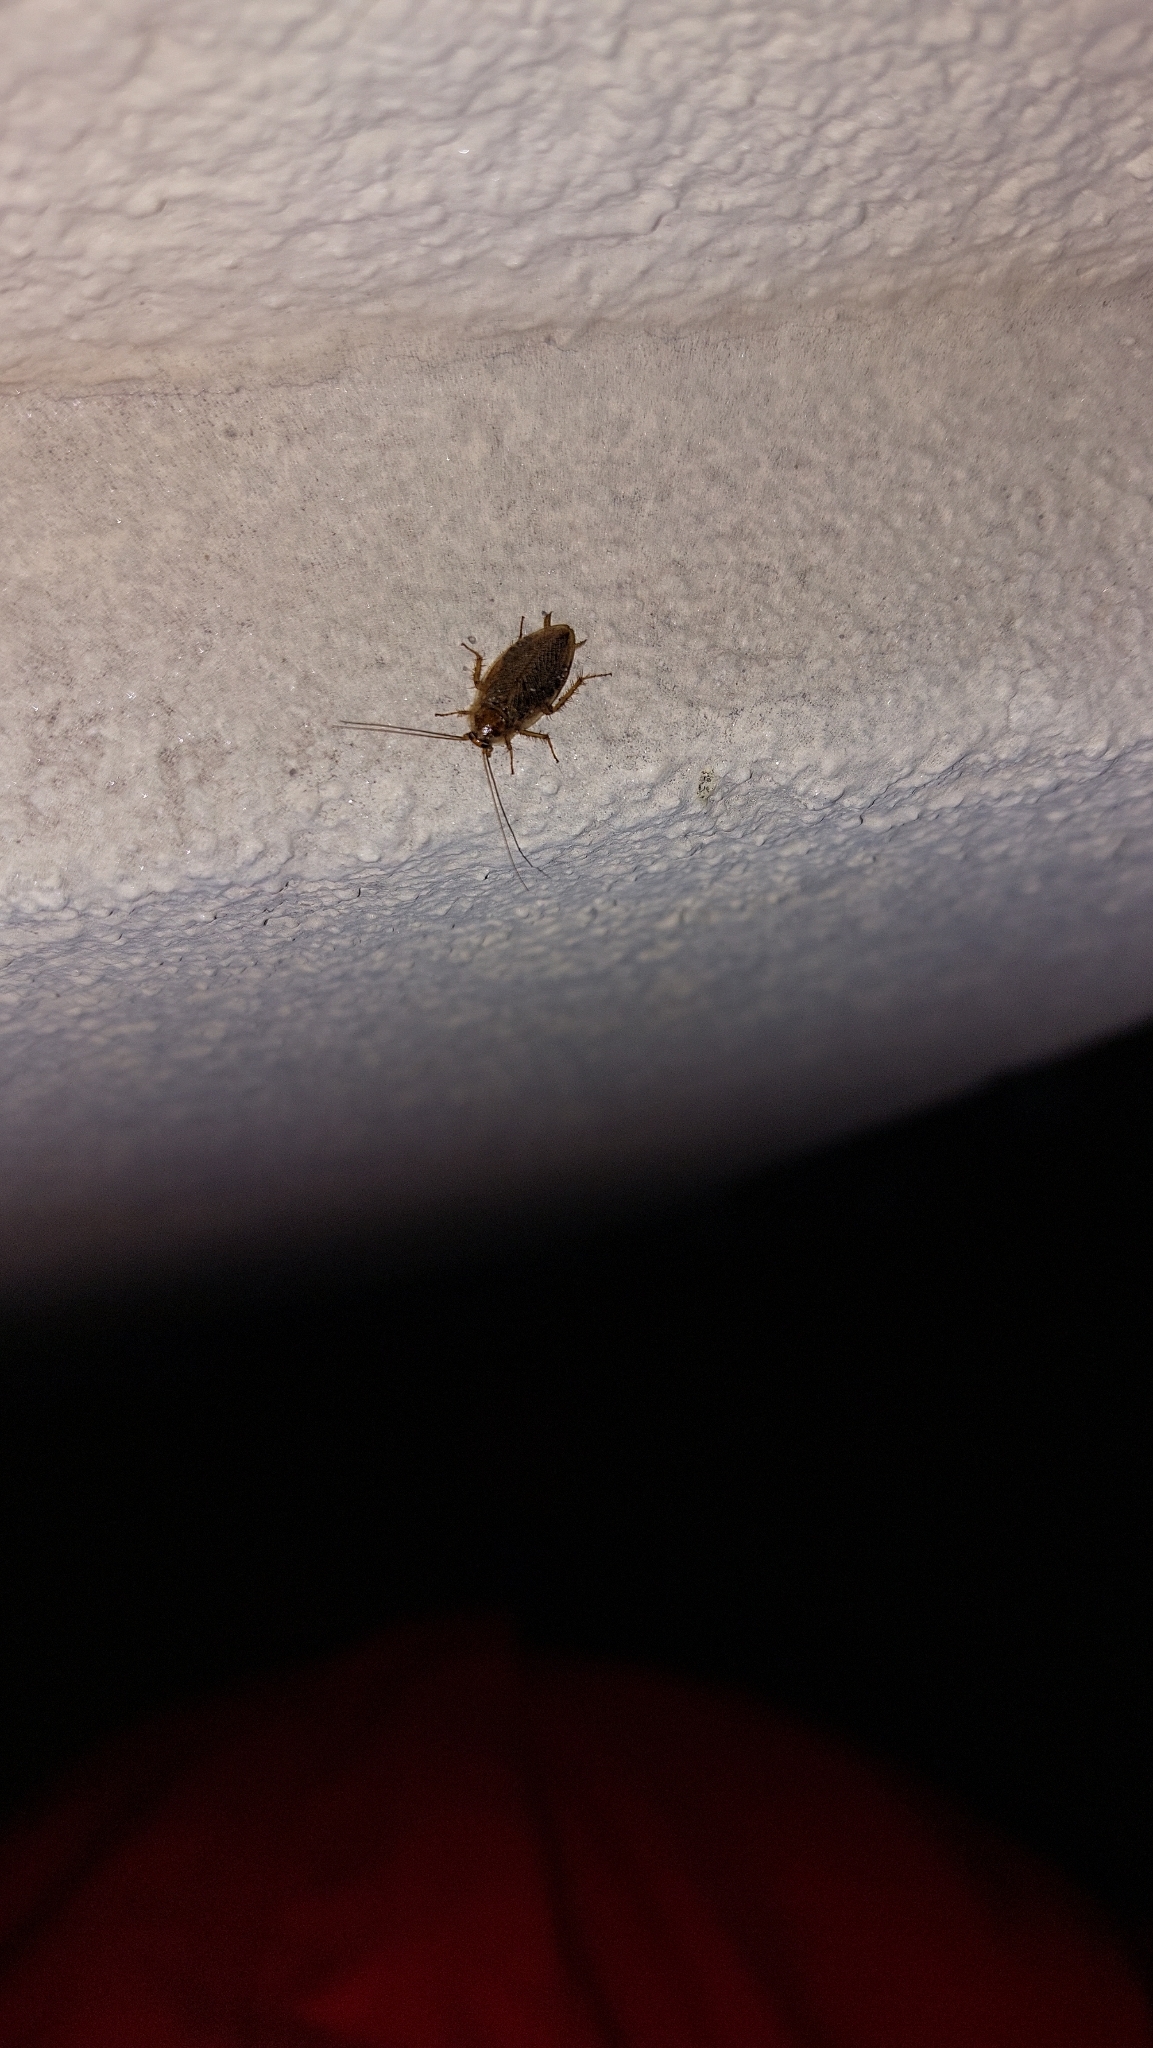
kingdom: Animalia
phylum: Arthropoda
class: Insecta
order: Blattodea
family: Ectobiidae
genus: Ectobius
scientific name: Ectobius vittiventris
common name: Garden cockroach
